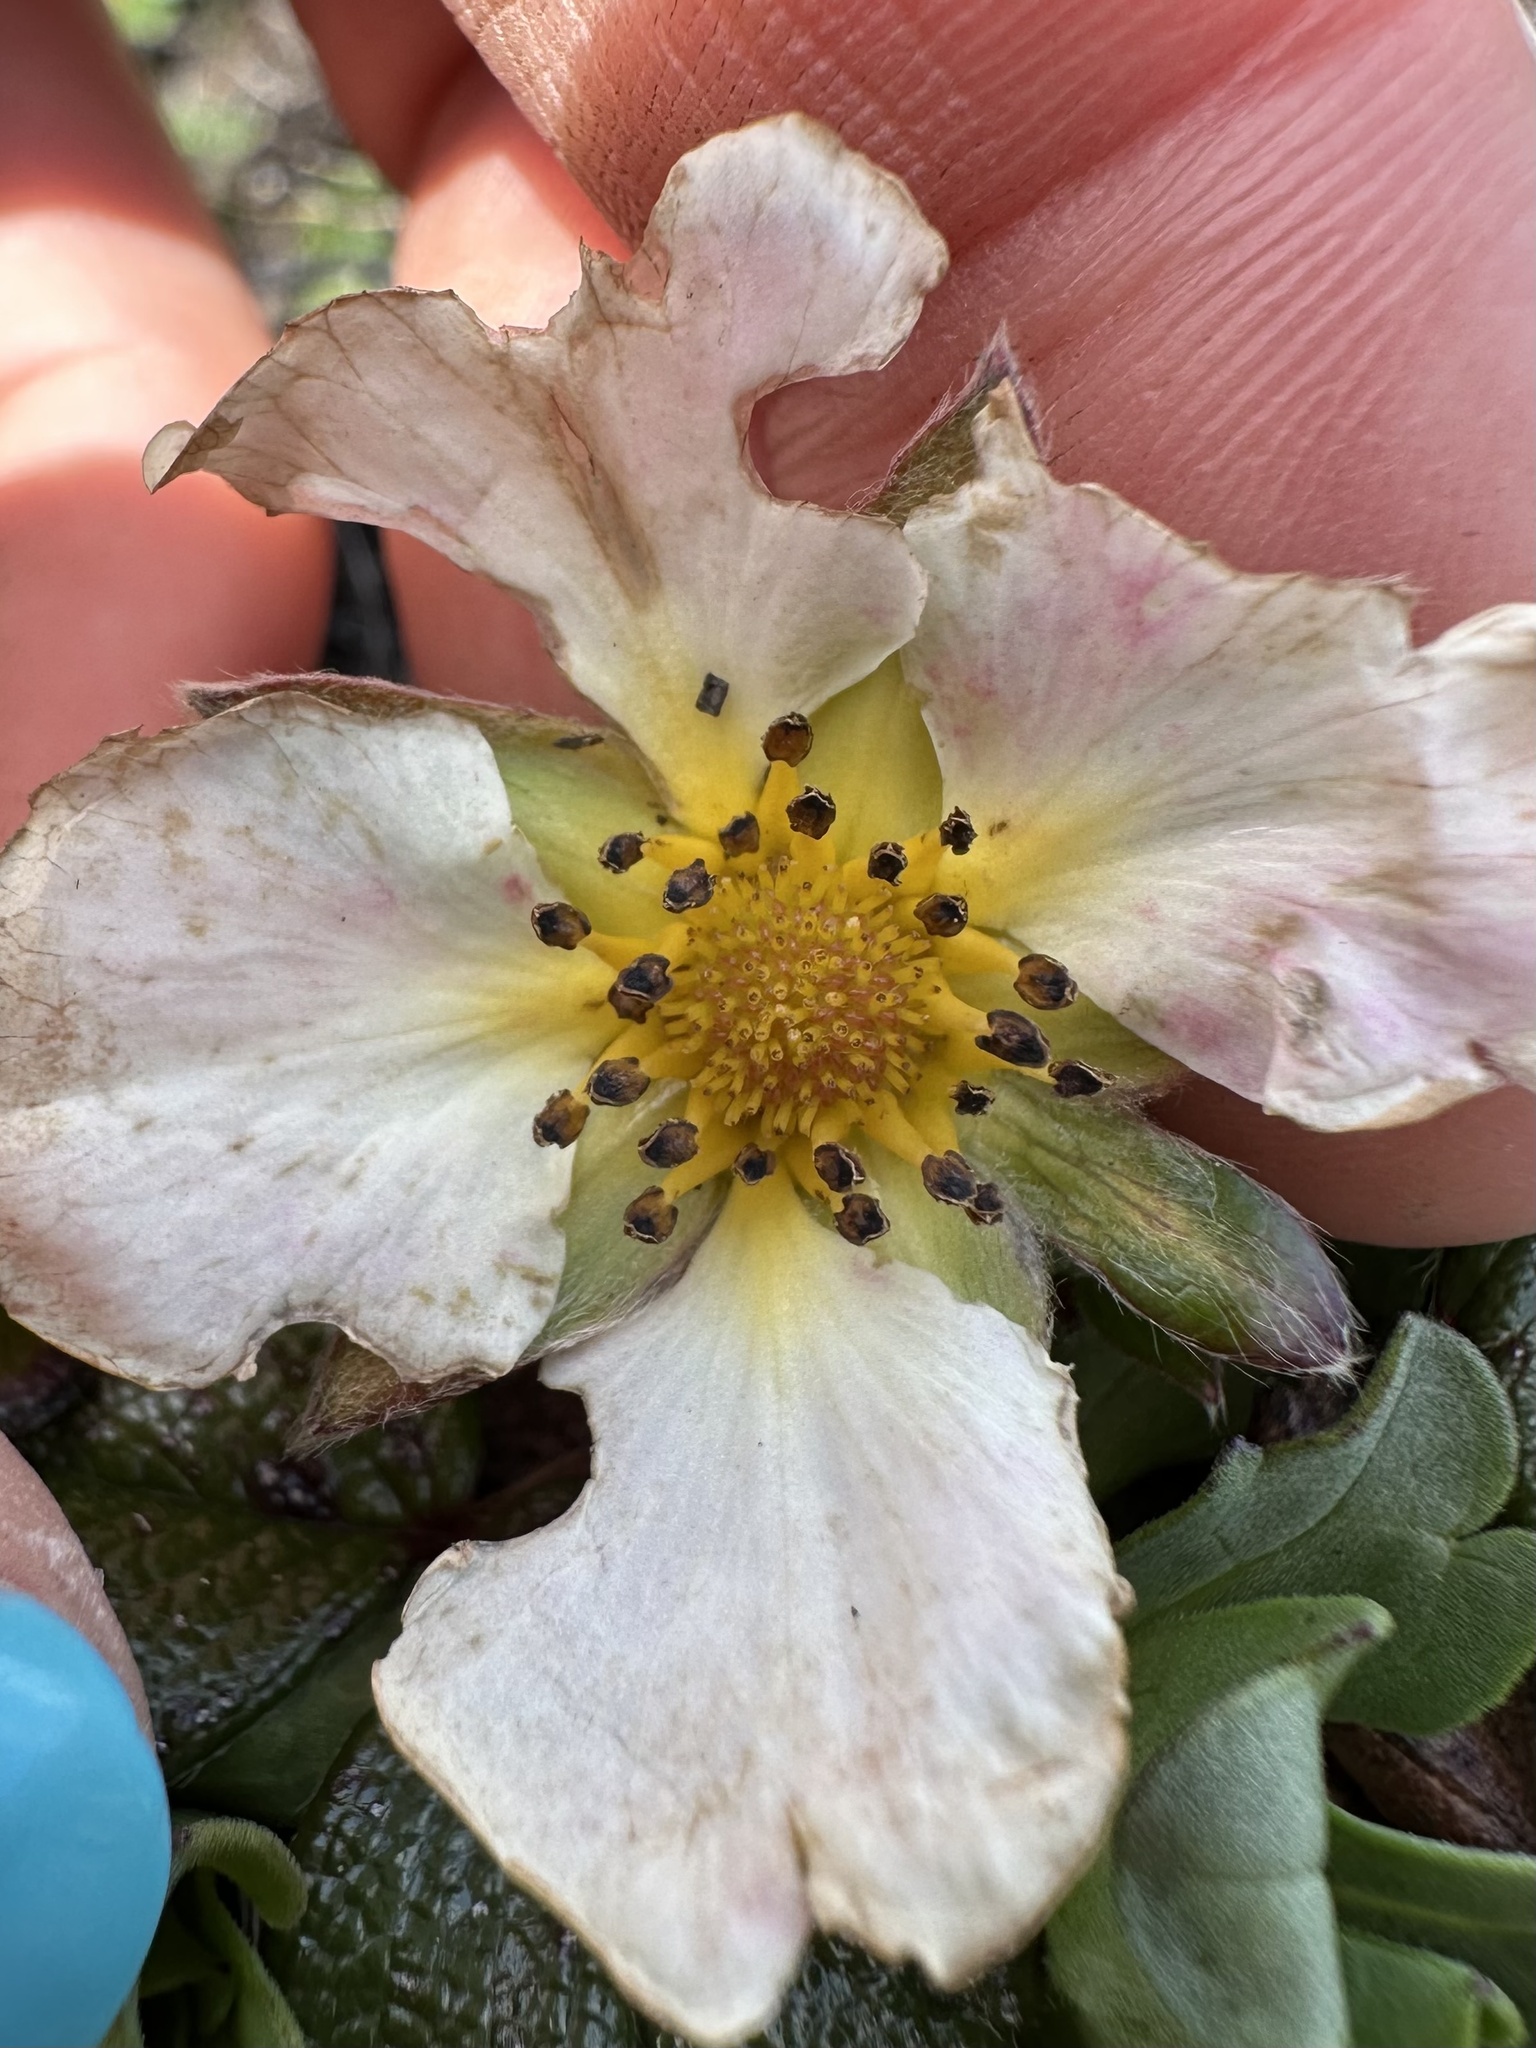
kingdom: Plantae
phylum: Tracheophyta
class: Magnoliopsida
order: Rosales
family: Rosaceae
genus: Fragaria
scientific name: Fragaria chiloensis
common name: Beach strawberry
